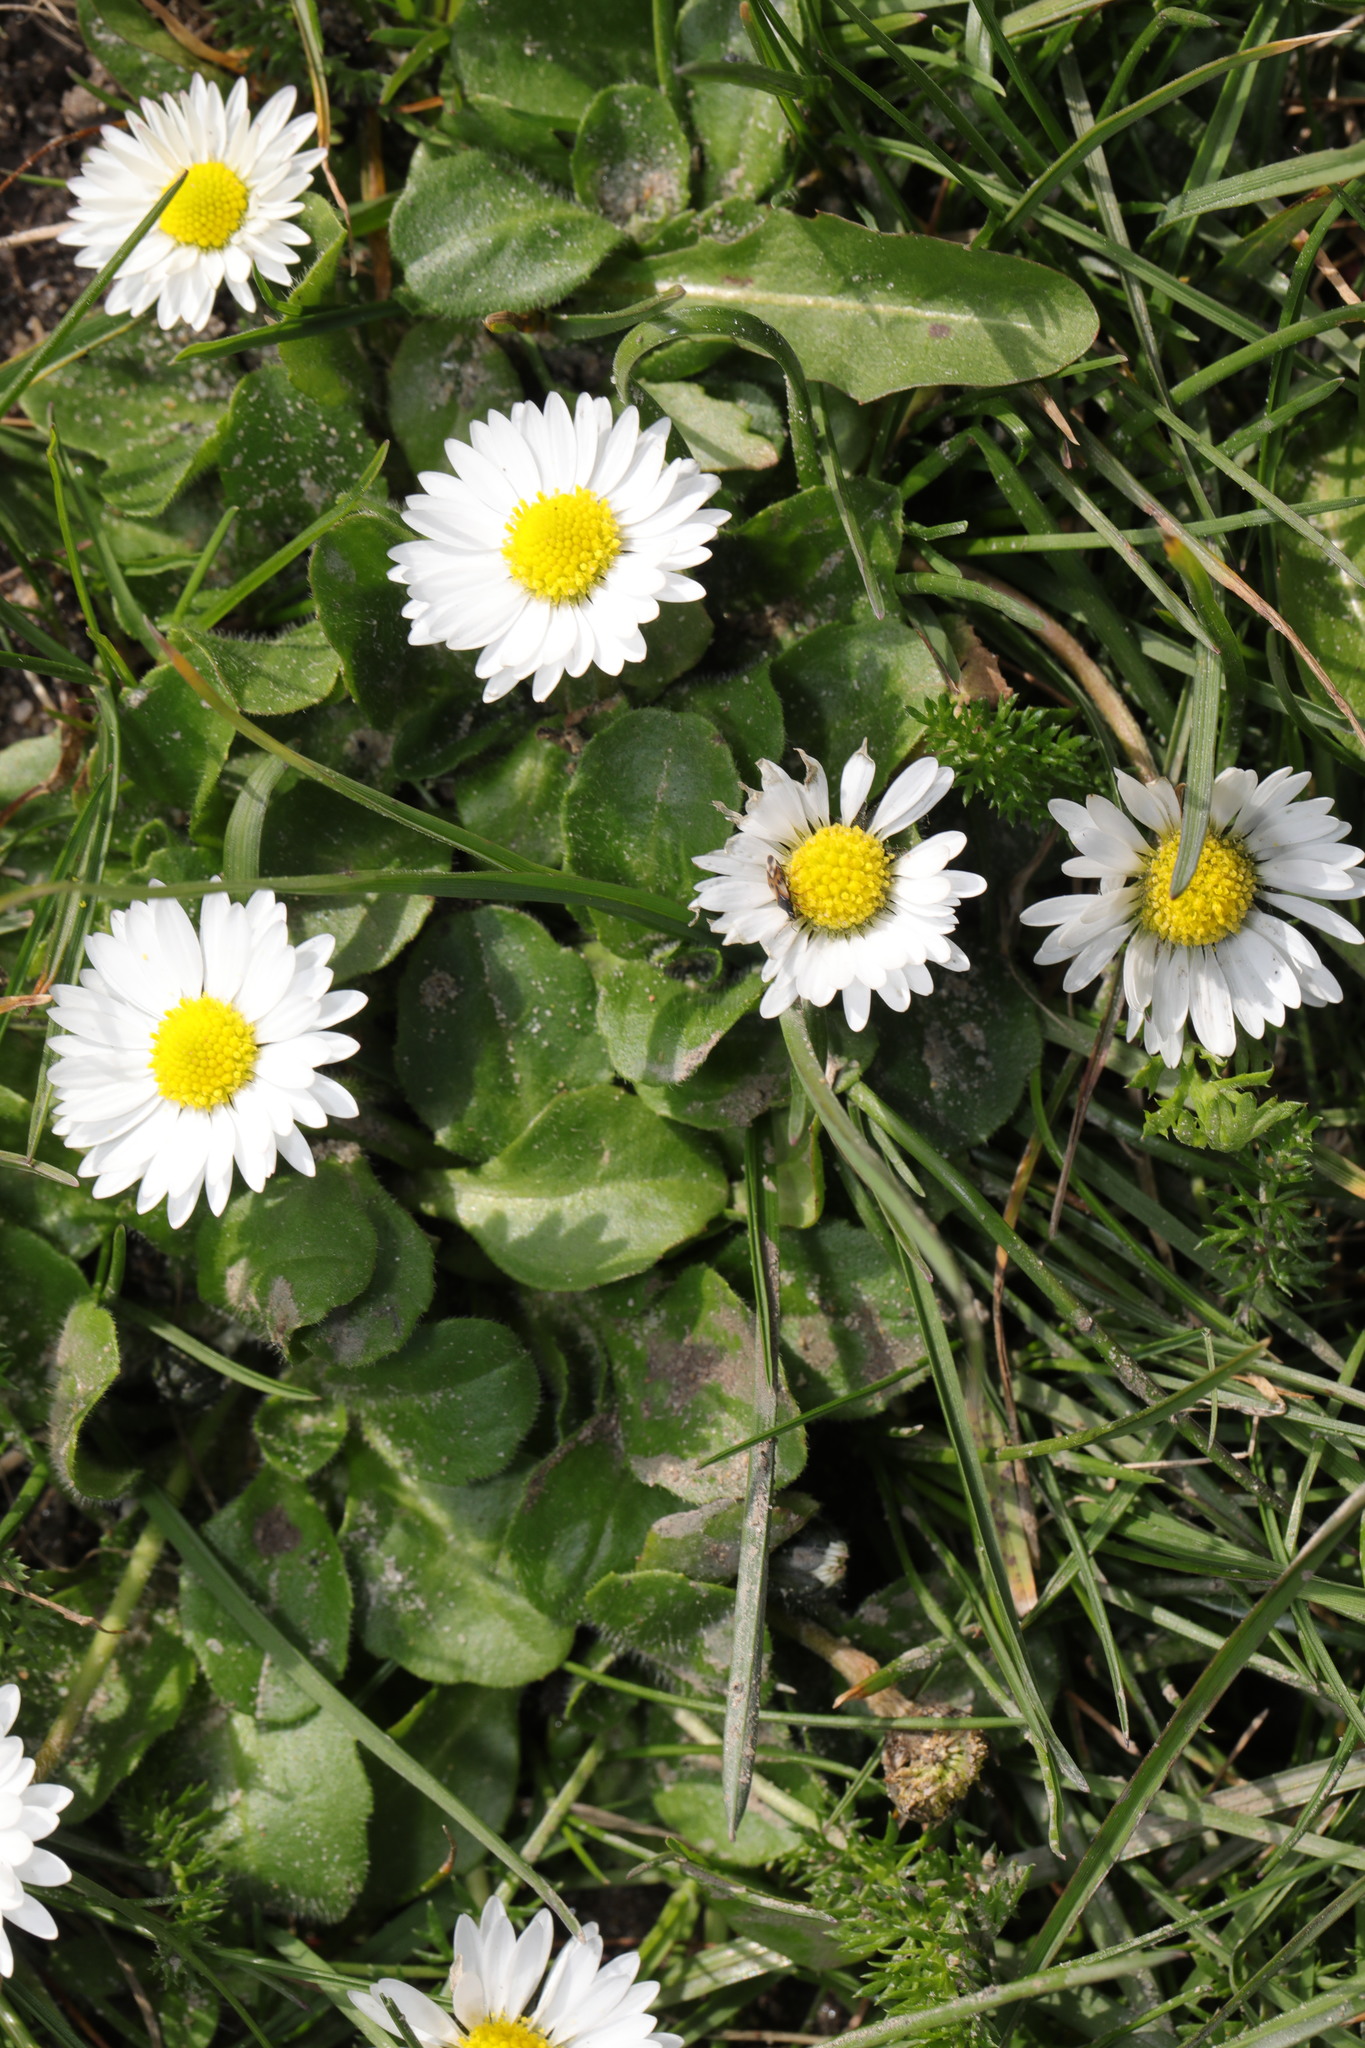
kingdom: Plantae
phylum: Tracheophyta
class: Magnoliopsida
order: Asterales
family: Asteraceae
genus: Bellis
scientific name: Bellis perennis
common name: Lawndaisy
